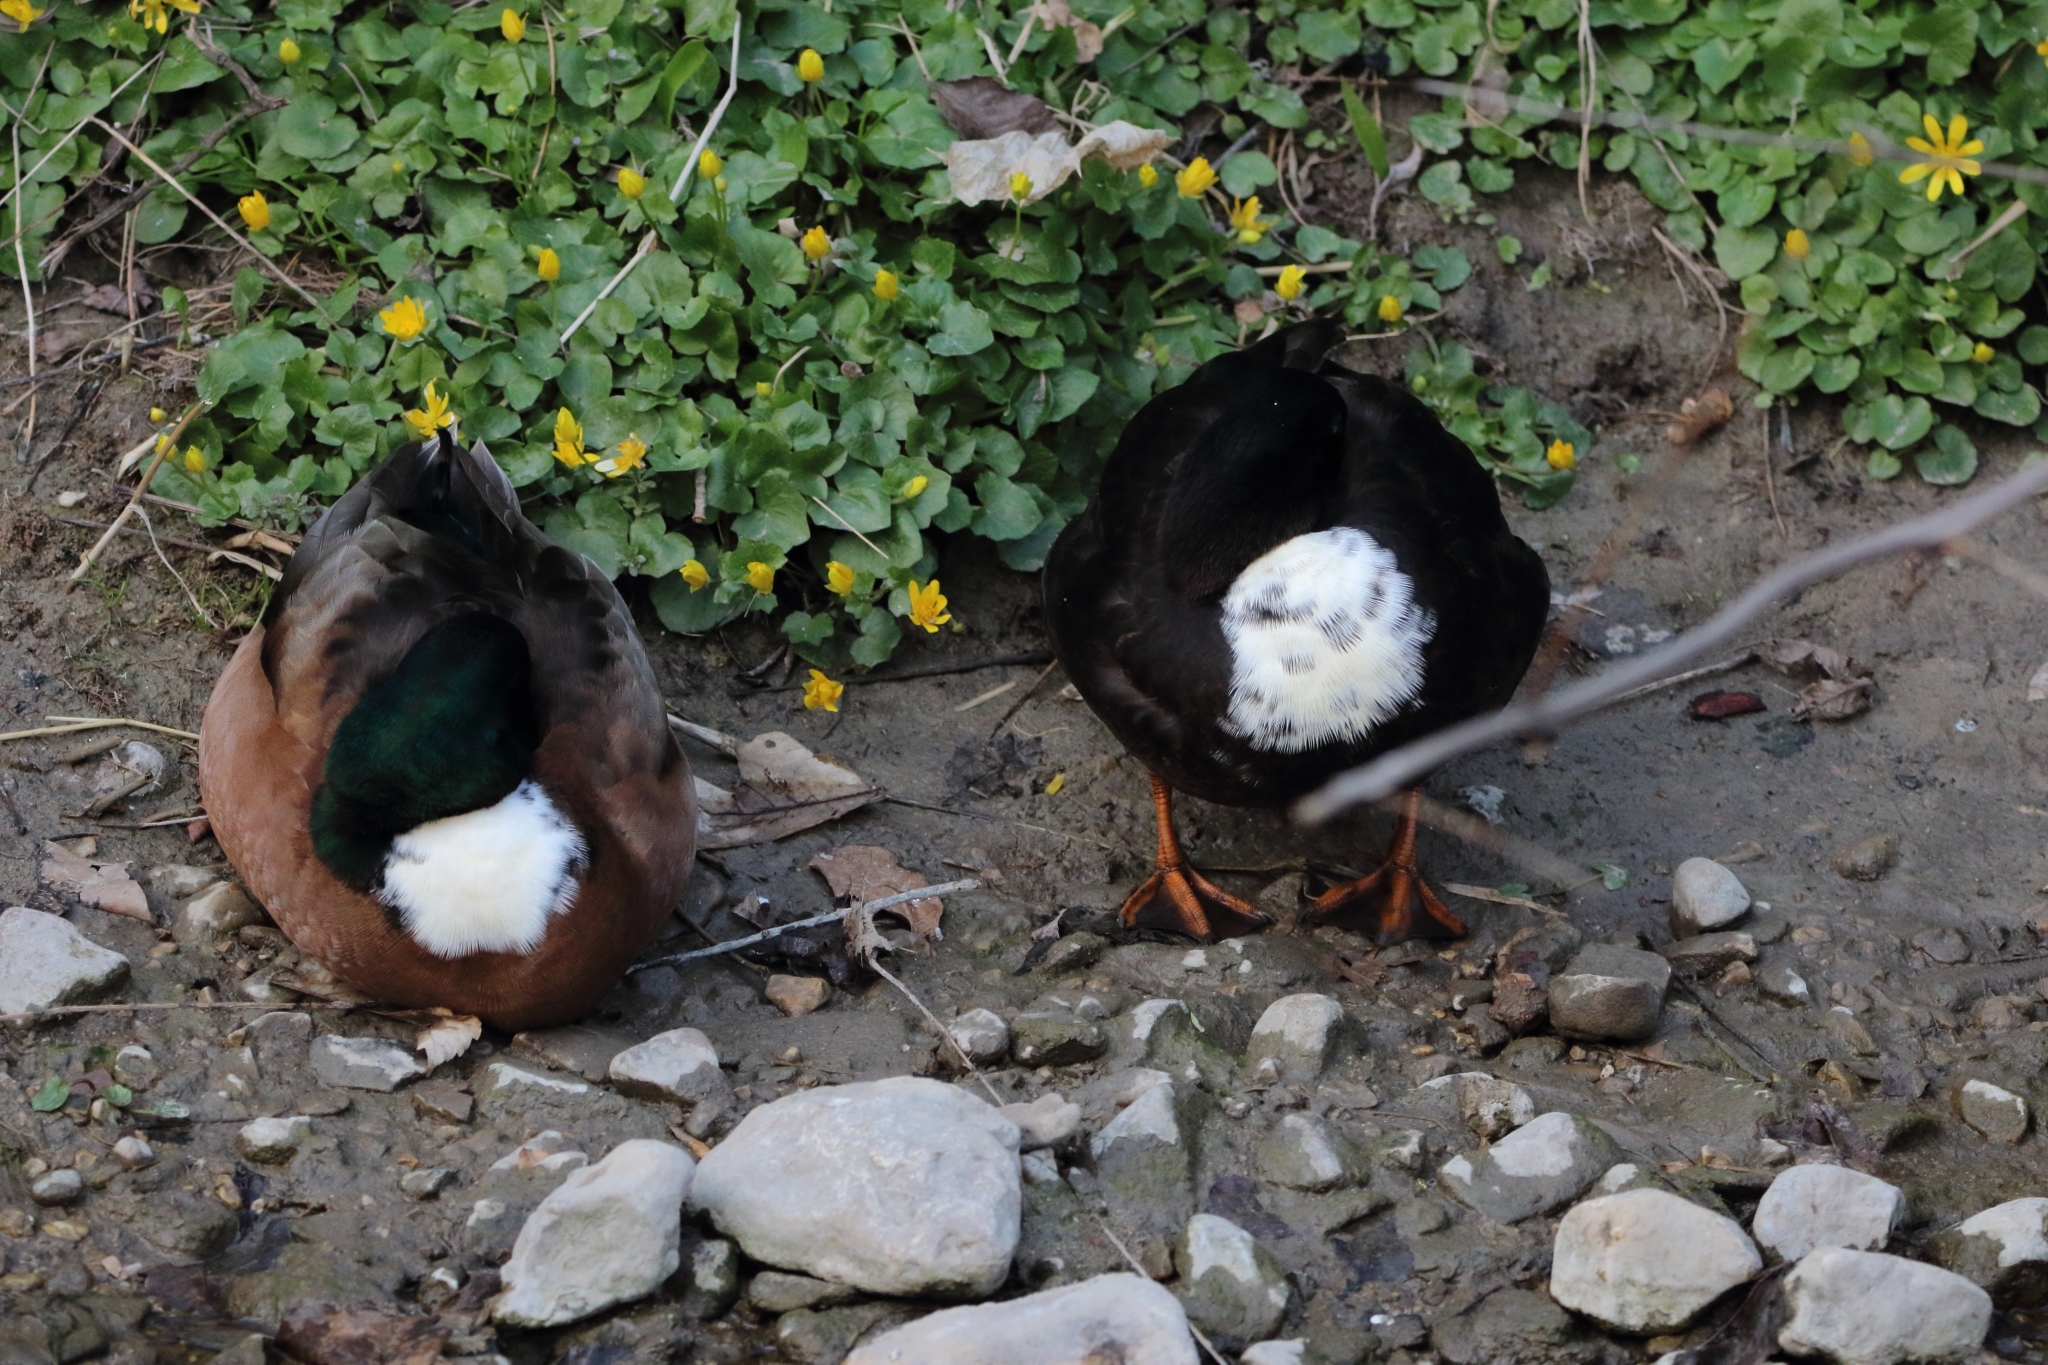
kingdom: Animalia
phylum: Chordata
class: Aves
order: Anseriformes
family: Anatidae
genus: Anas
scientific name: Anas platyrhynchos
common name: Mallard
